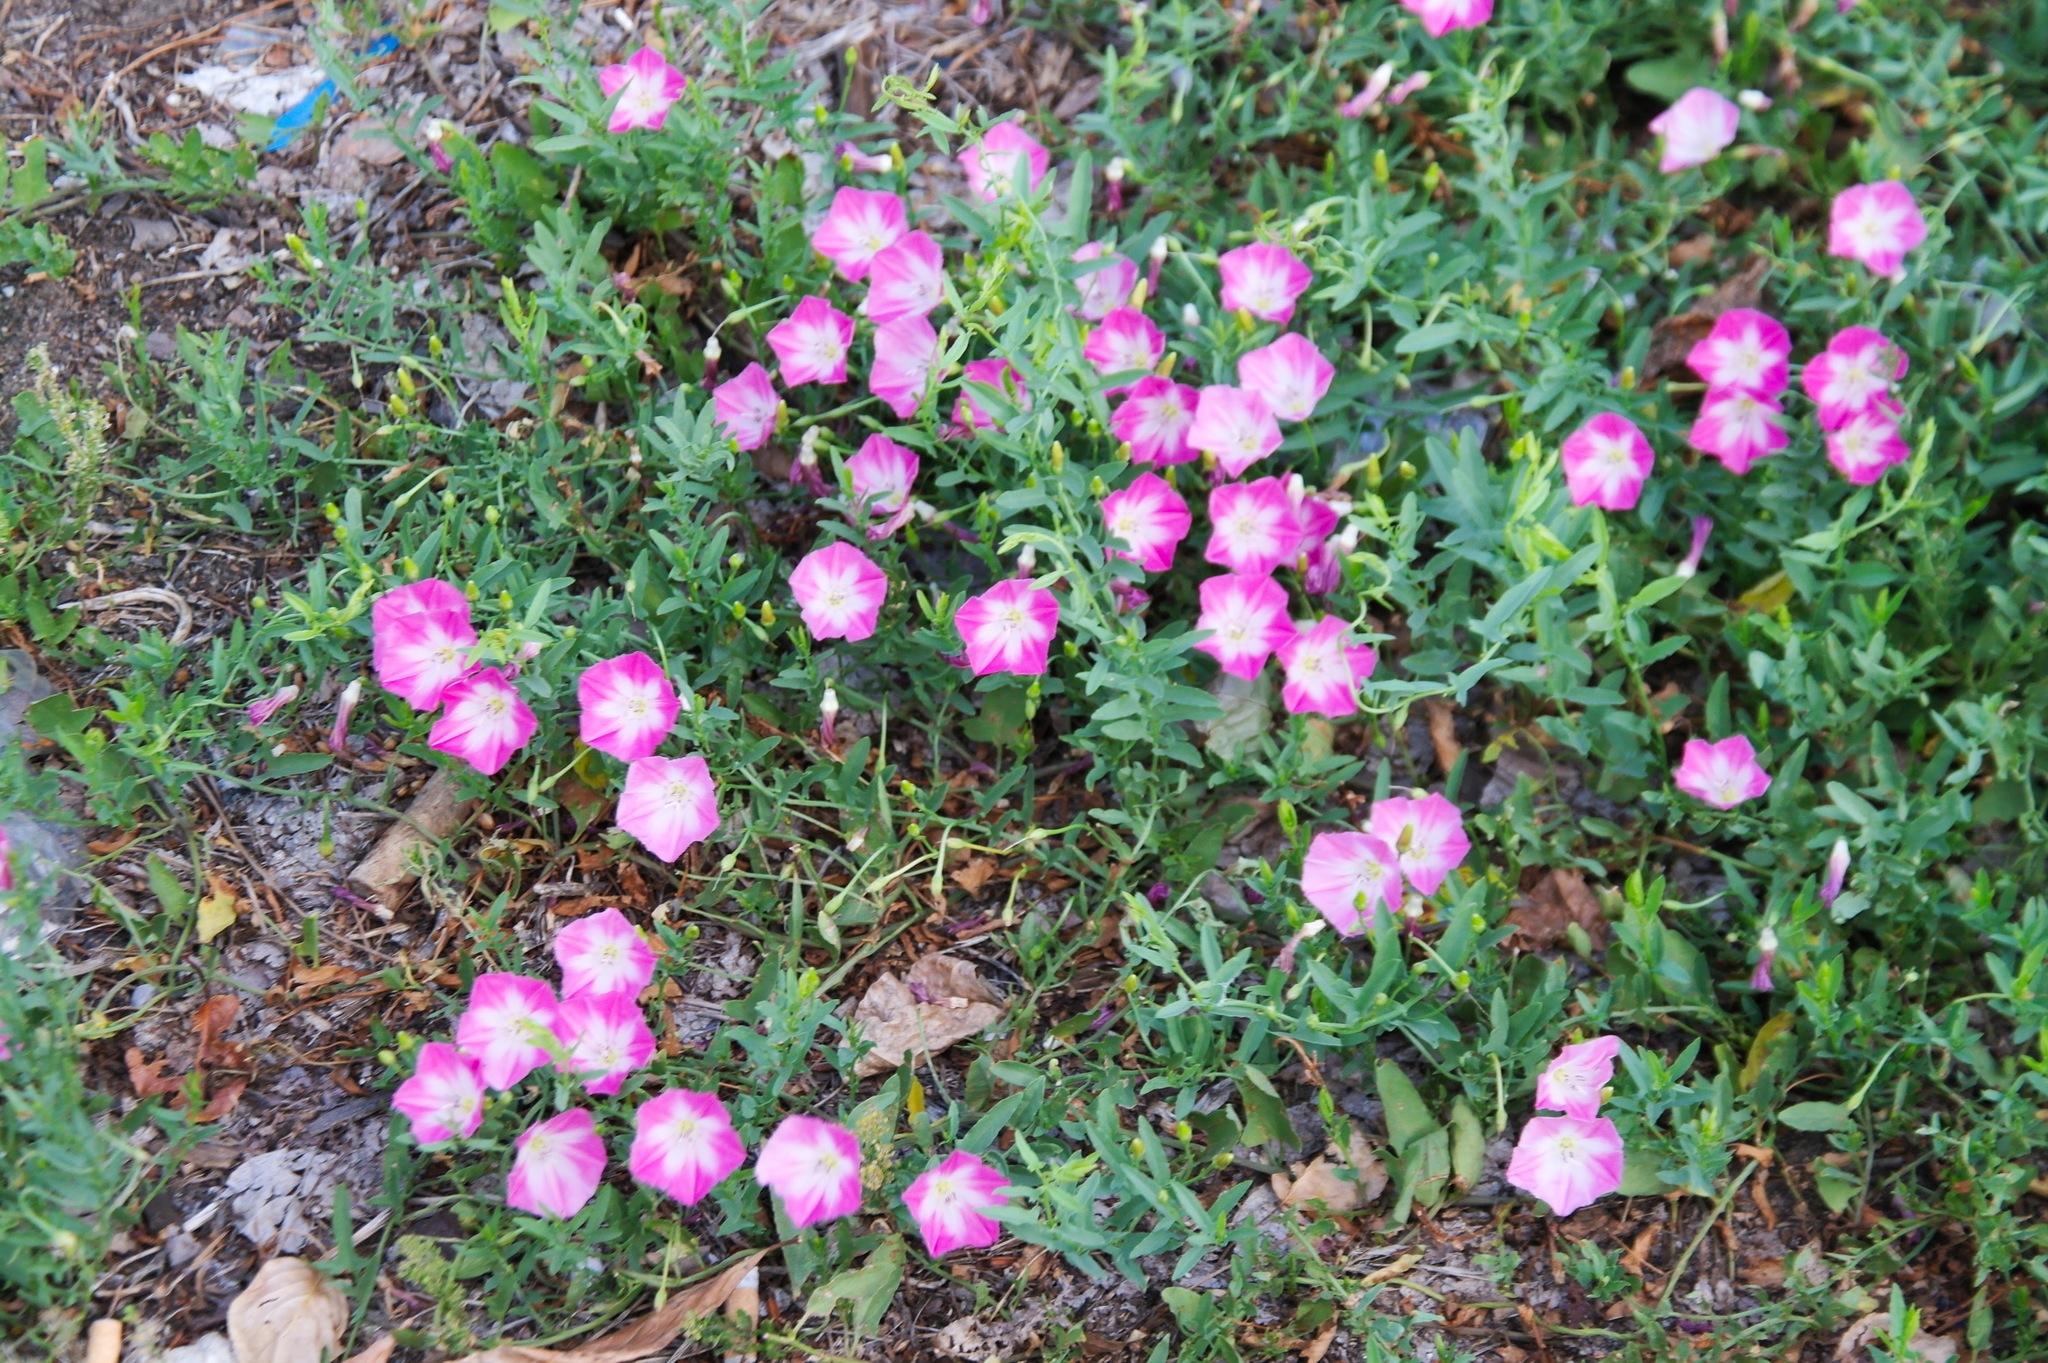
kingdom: Plantae
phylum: Tracheophyta
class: Magnoliopsida
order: Solanales
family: Convolvulaceae
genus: Convolvulus
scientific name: Convolvulus chinensis
